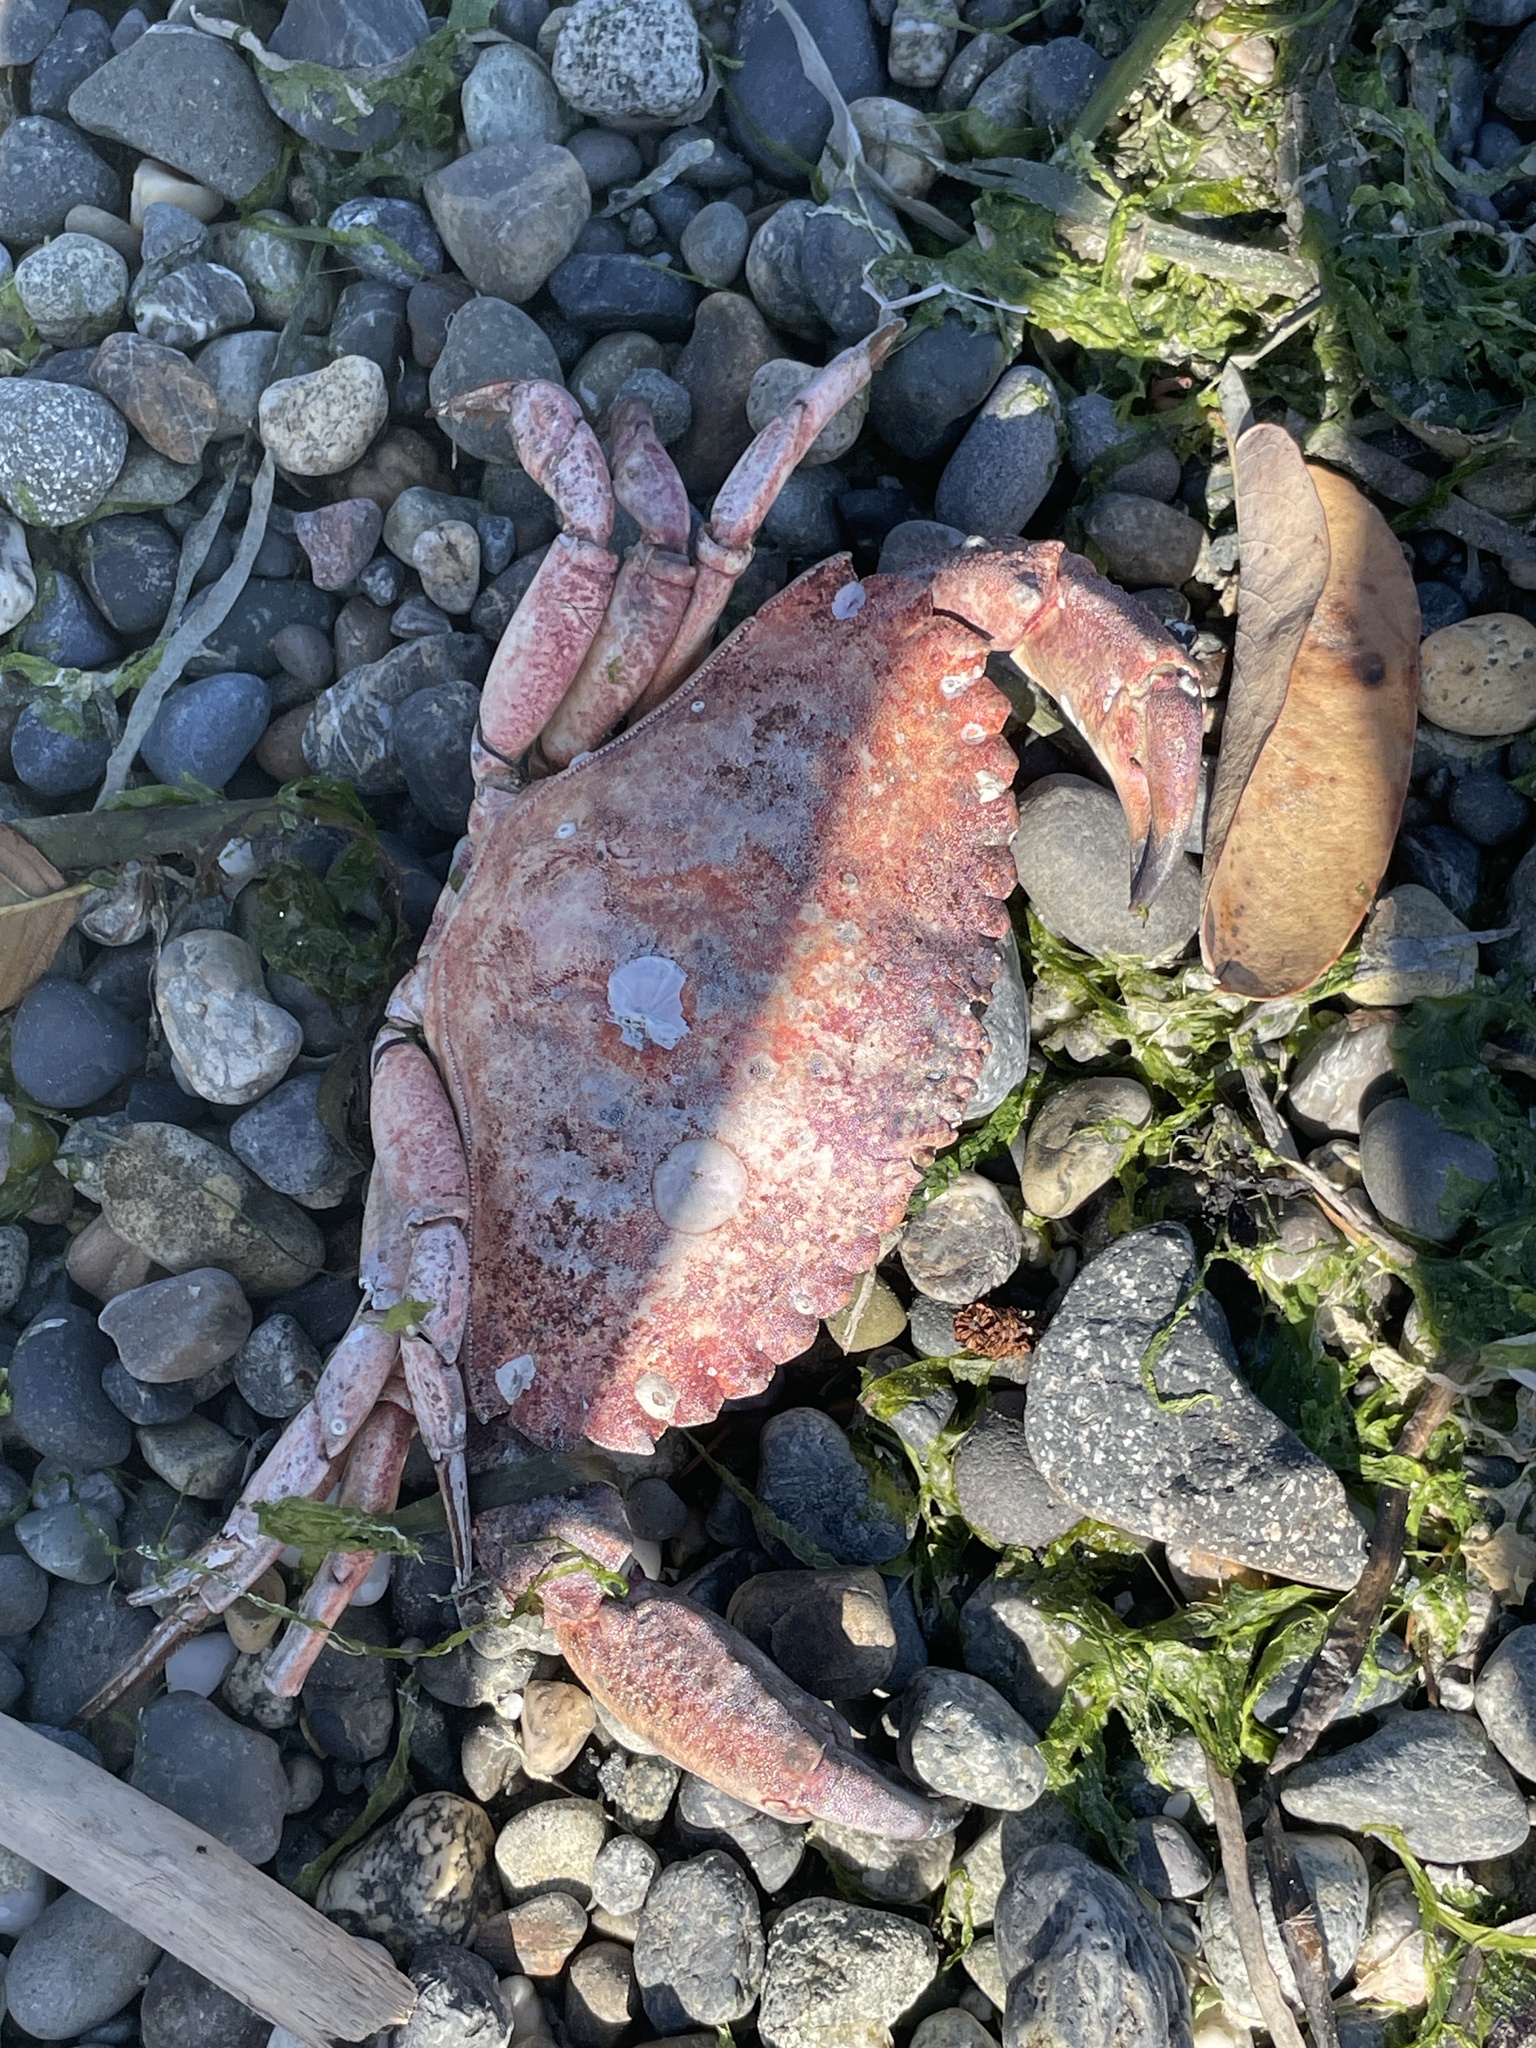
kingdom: Animalia
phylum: Arthropoda
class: Malacostraca
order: Decapoda
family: Cancridae
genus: Cancer
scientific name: Cancer productus
